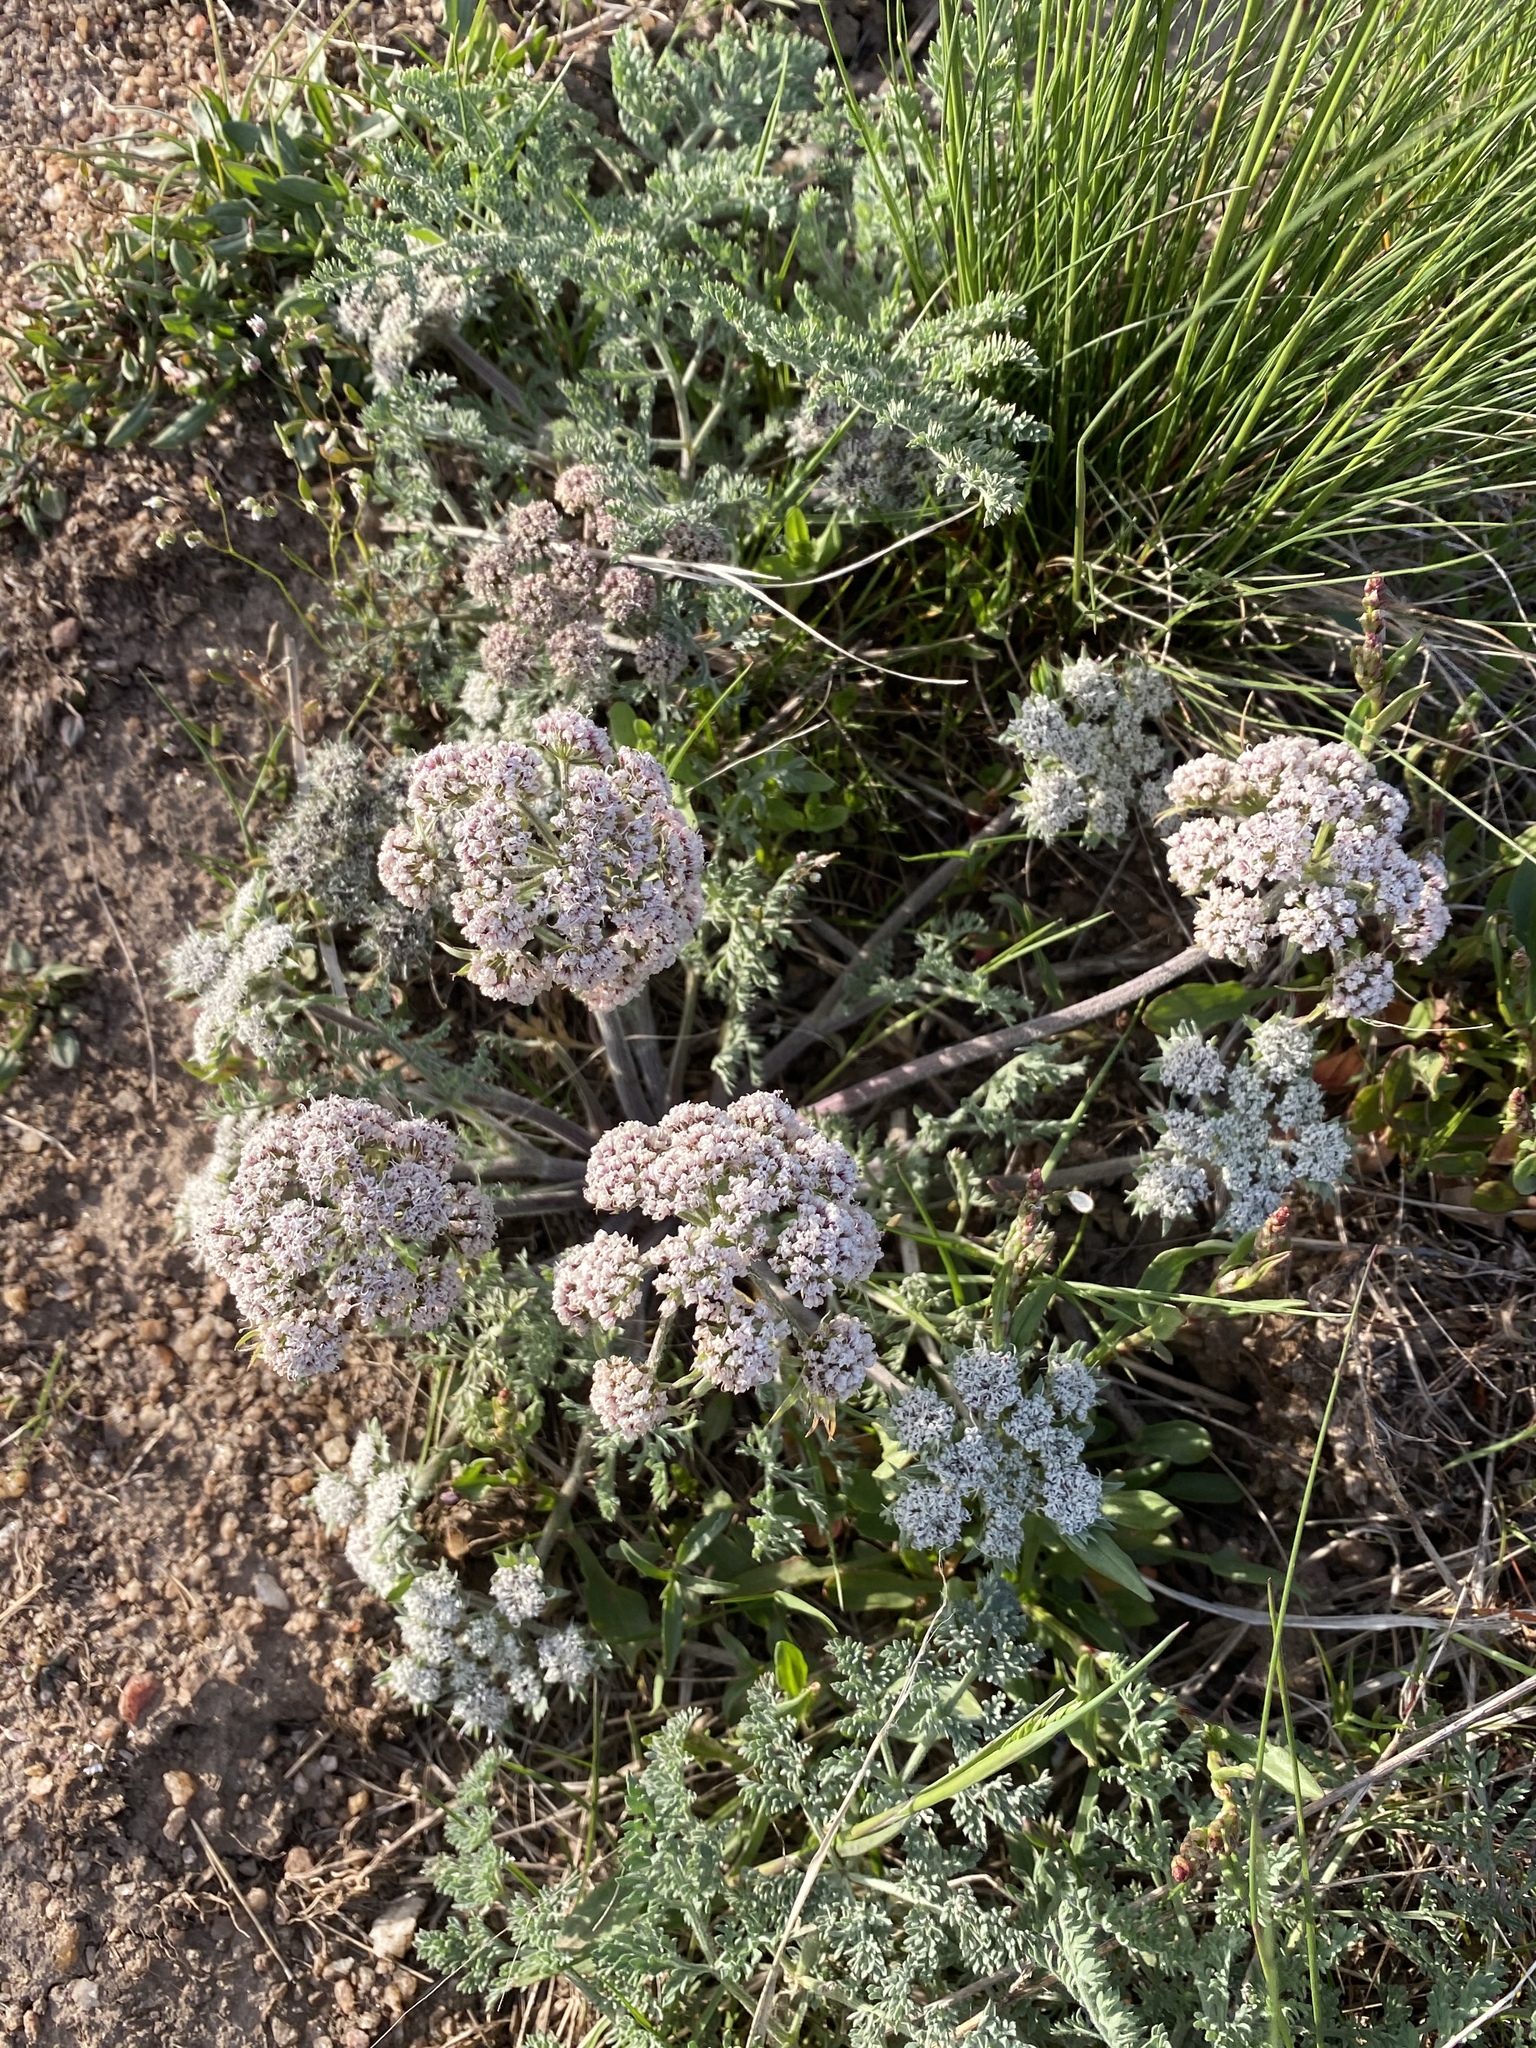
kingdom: Plantae
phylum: Tracheophyta
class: Magnoliopsida
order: Apiales
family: Apiaceae
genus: Lomatium
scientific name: Lomatium macrocarpum
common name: Big-seed biscuitroot
